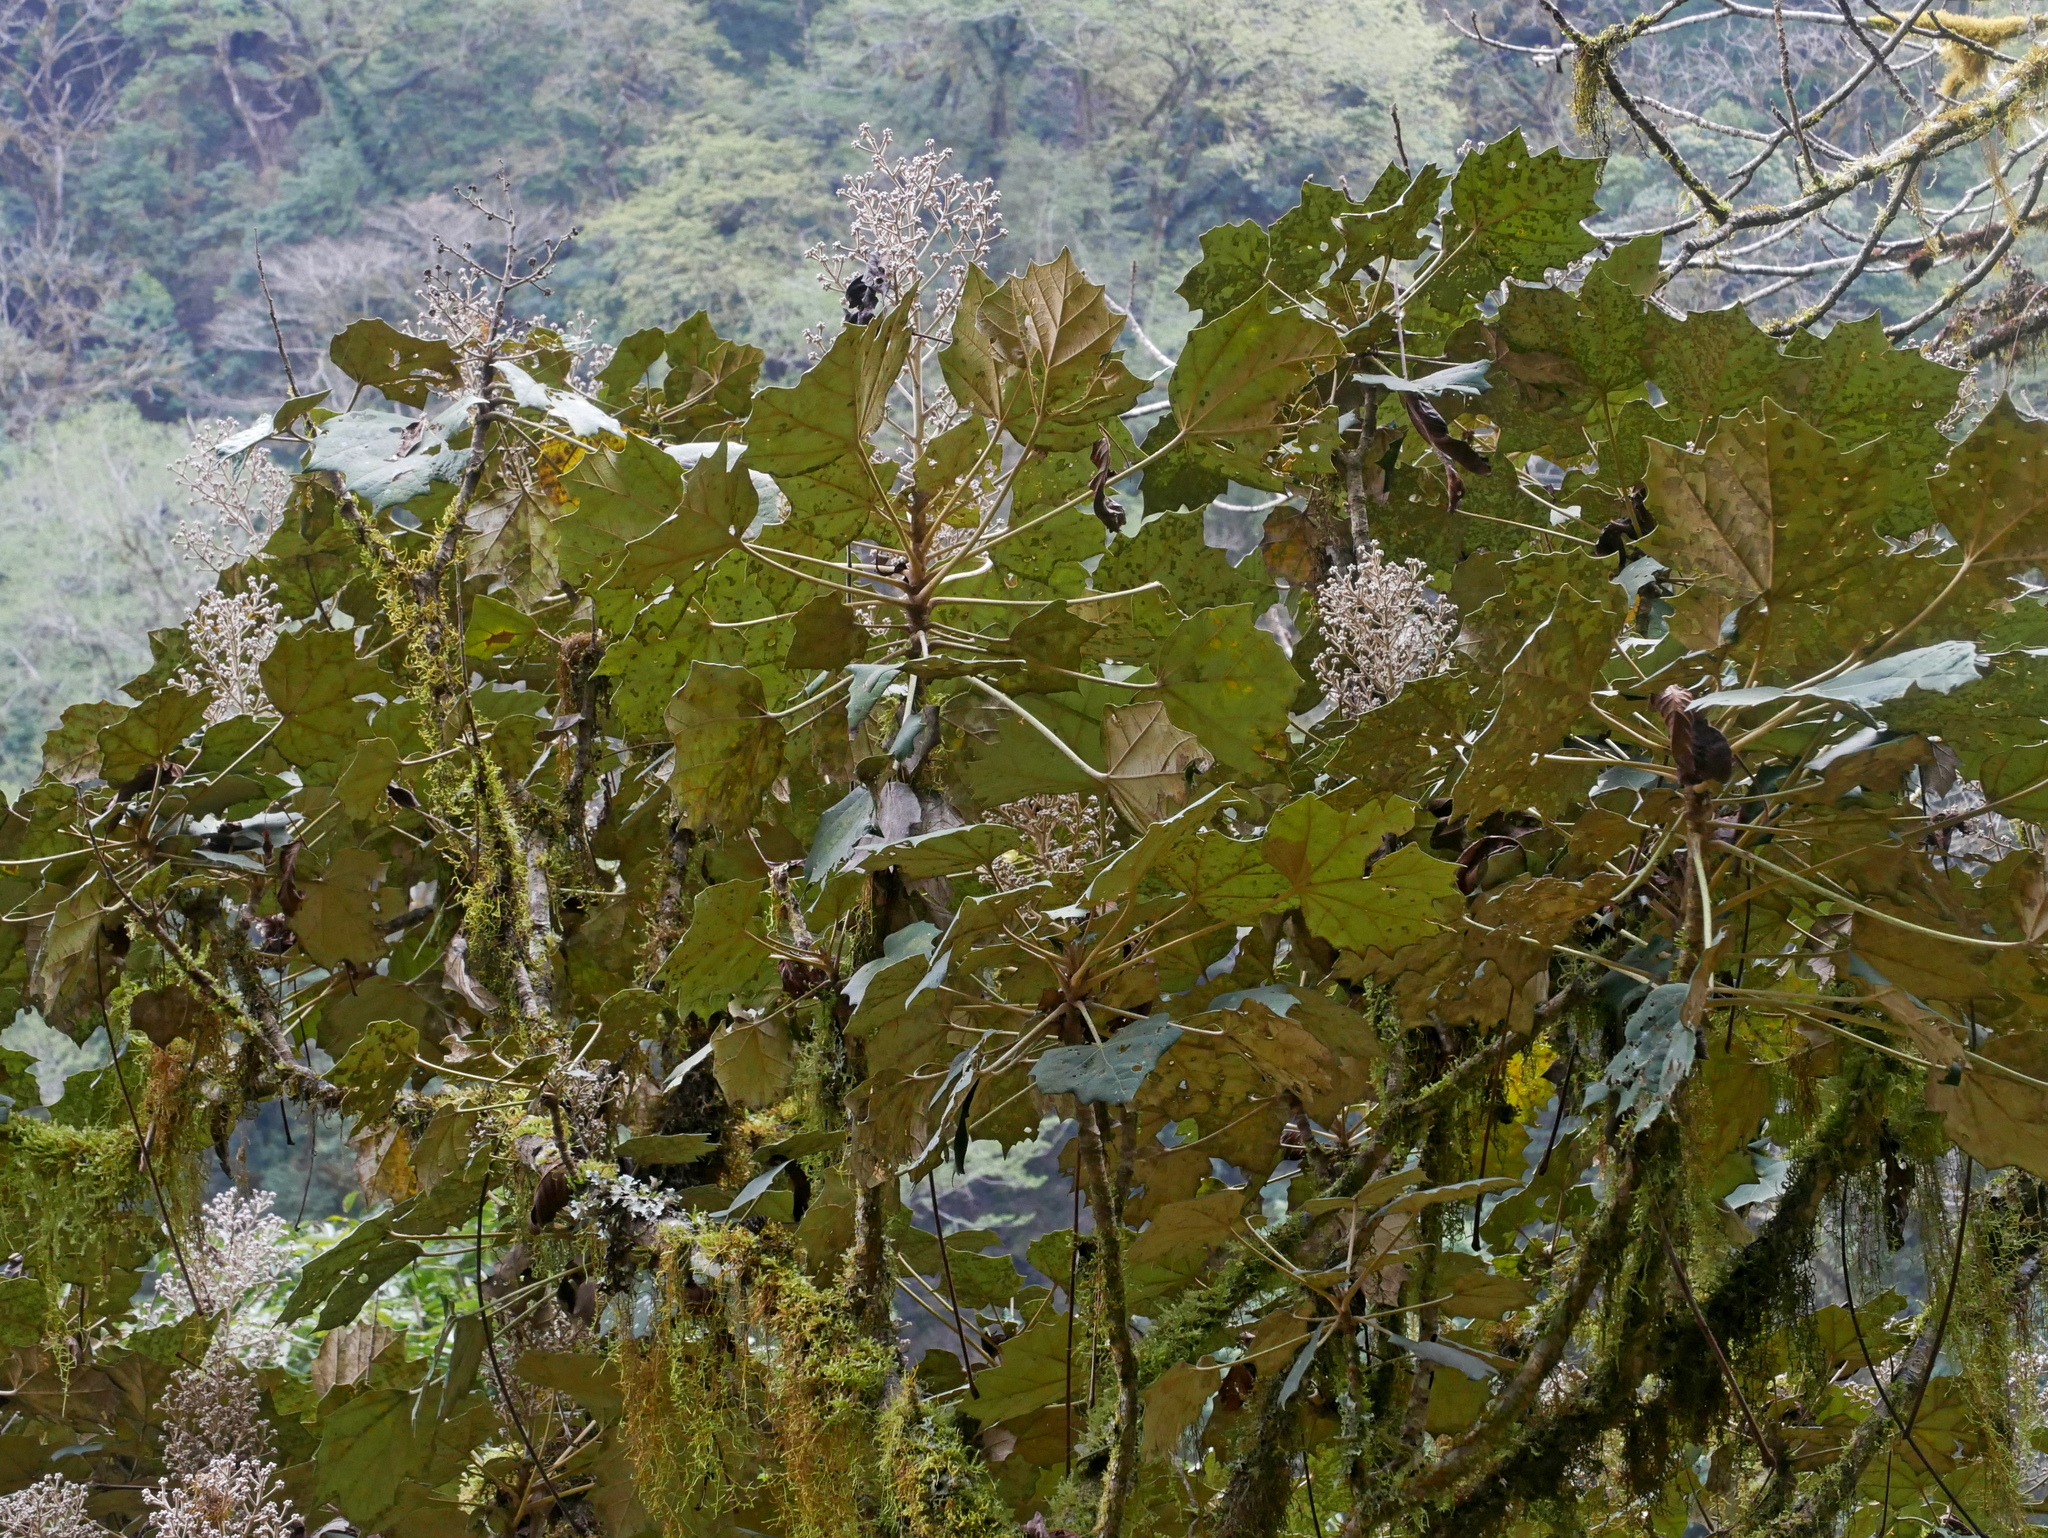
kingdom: Plantae
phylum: Tracheophyta
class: Magnoliopsida
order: Apiales
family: Araliaceae
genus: Sinopanax
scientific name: Sinopanax formosanus
